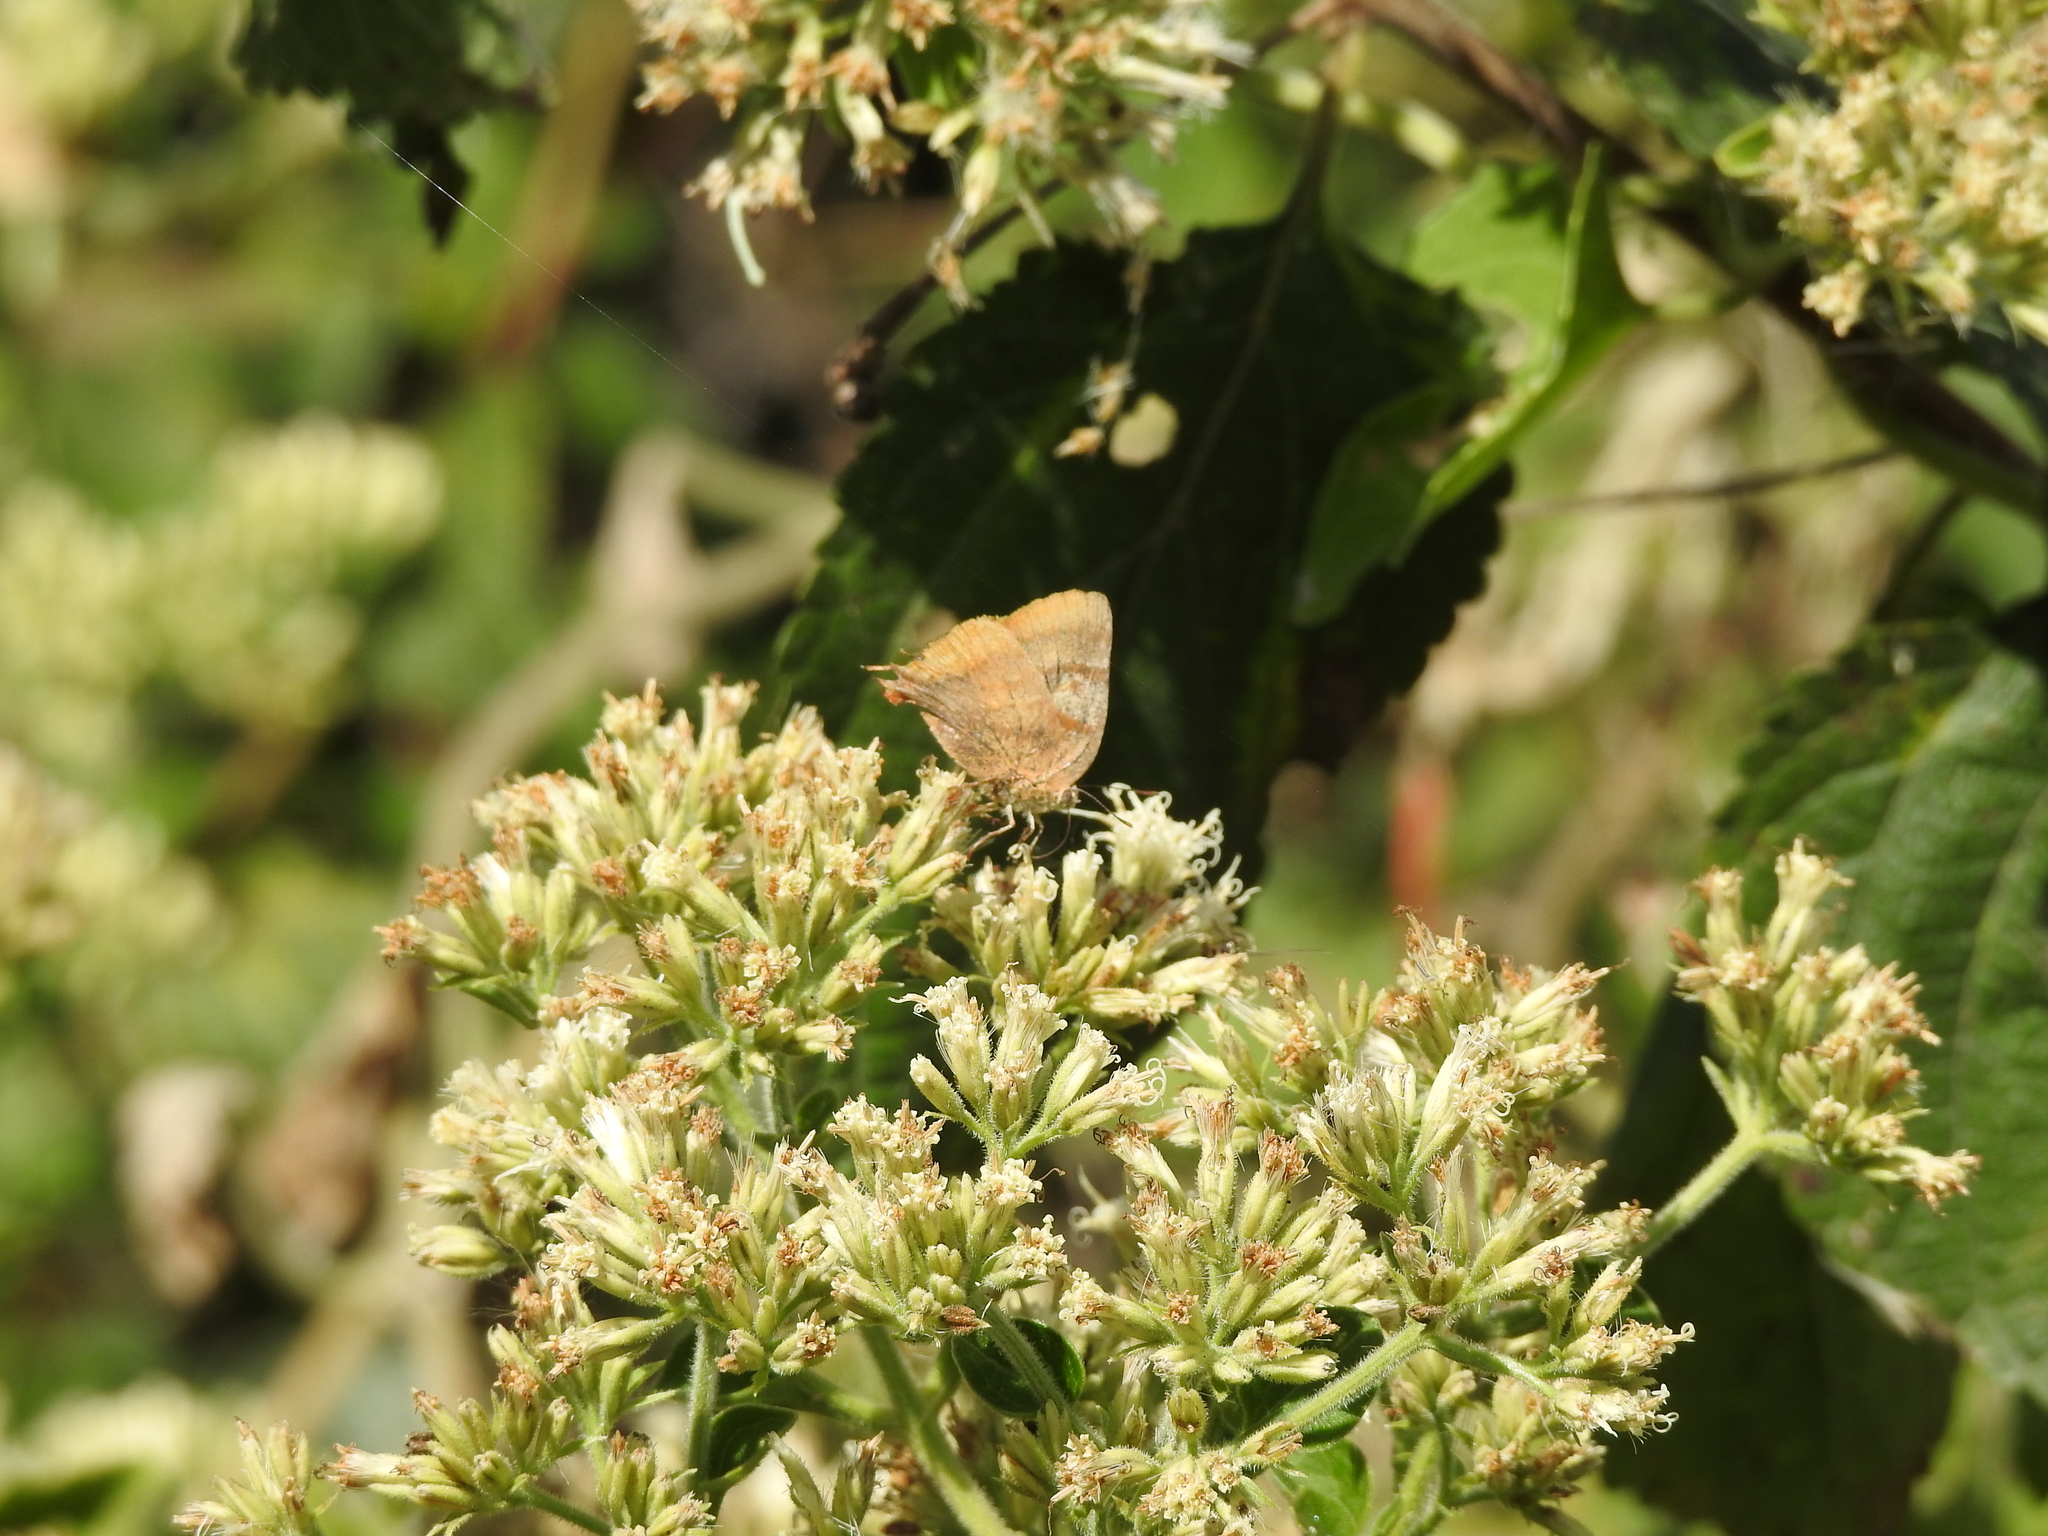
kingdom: Animalia
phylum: Arthropoda
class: Insecta
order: Lepidoptera
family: Lycaenidae
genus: Thecla
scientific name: Thecla marius
